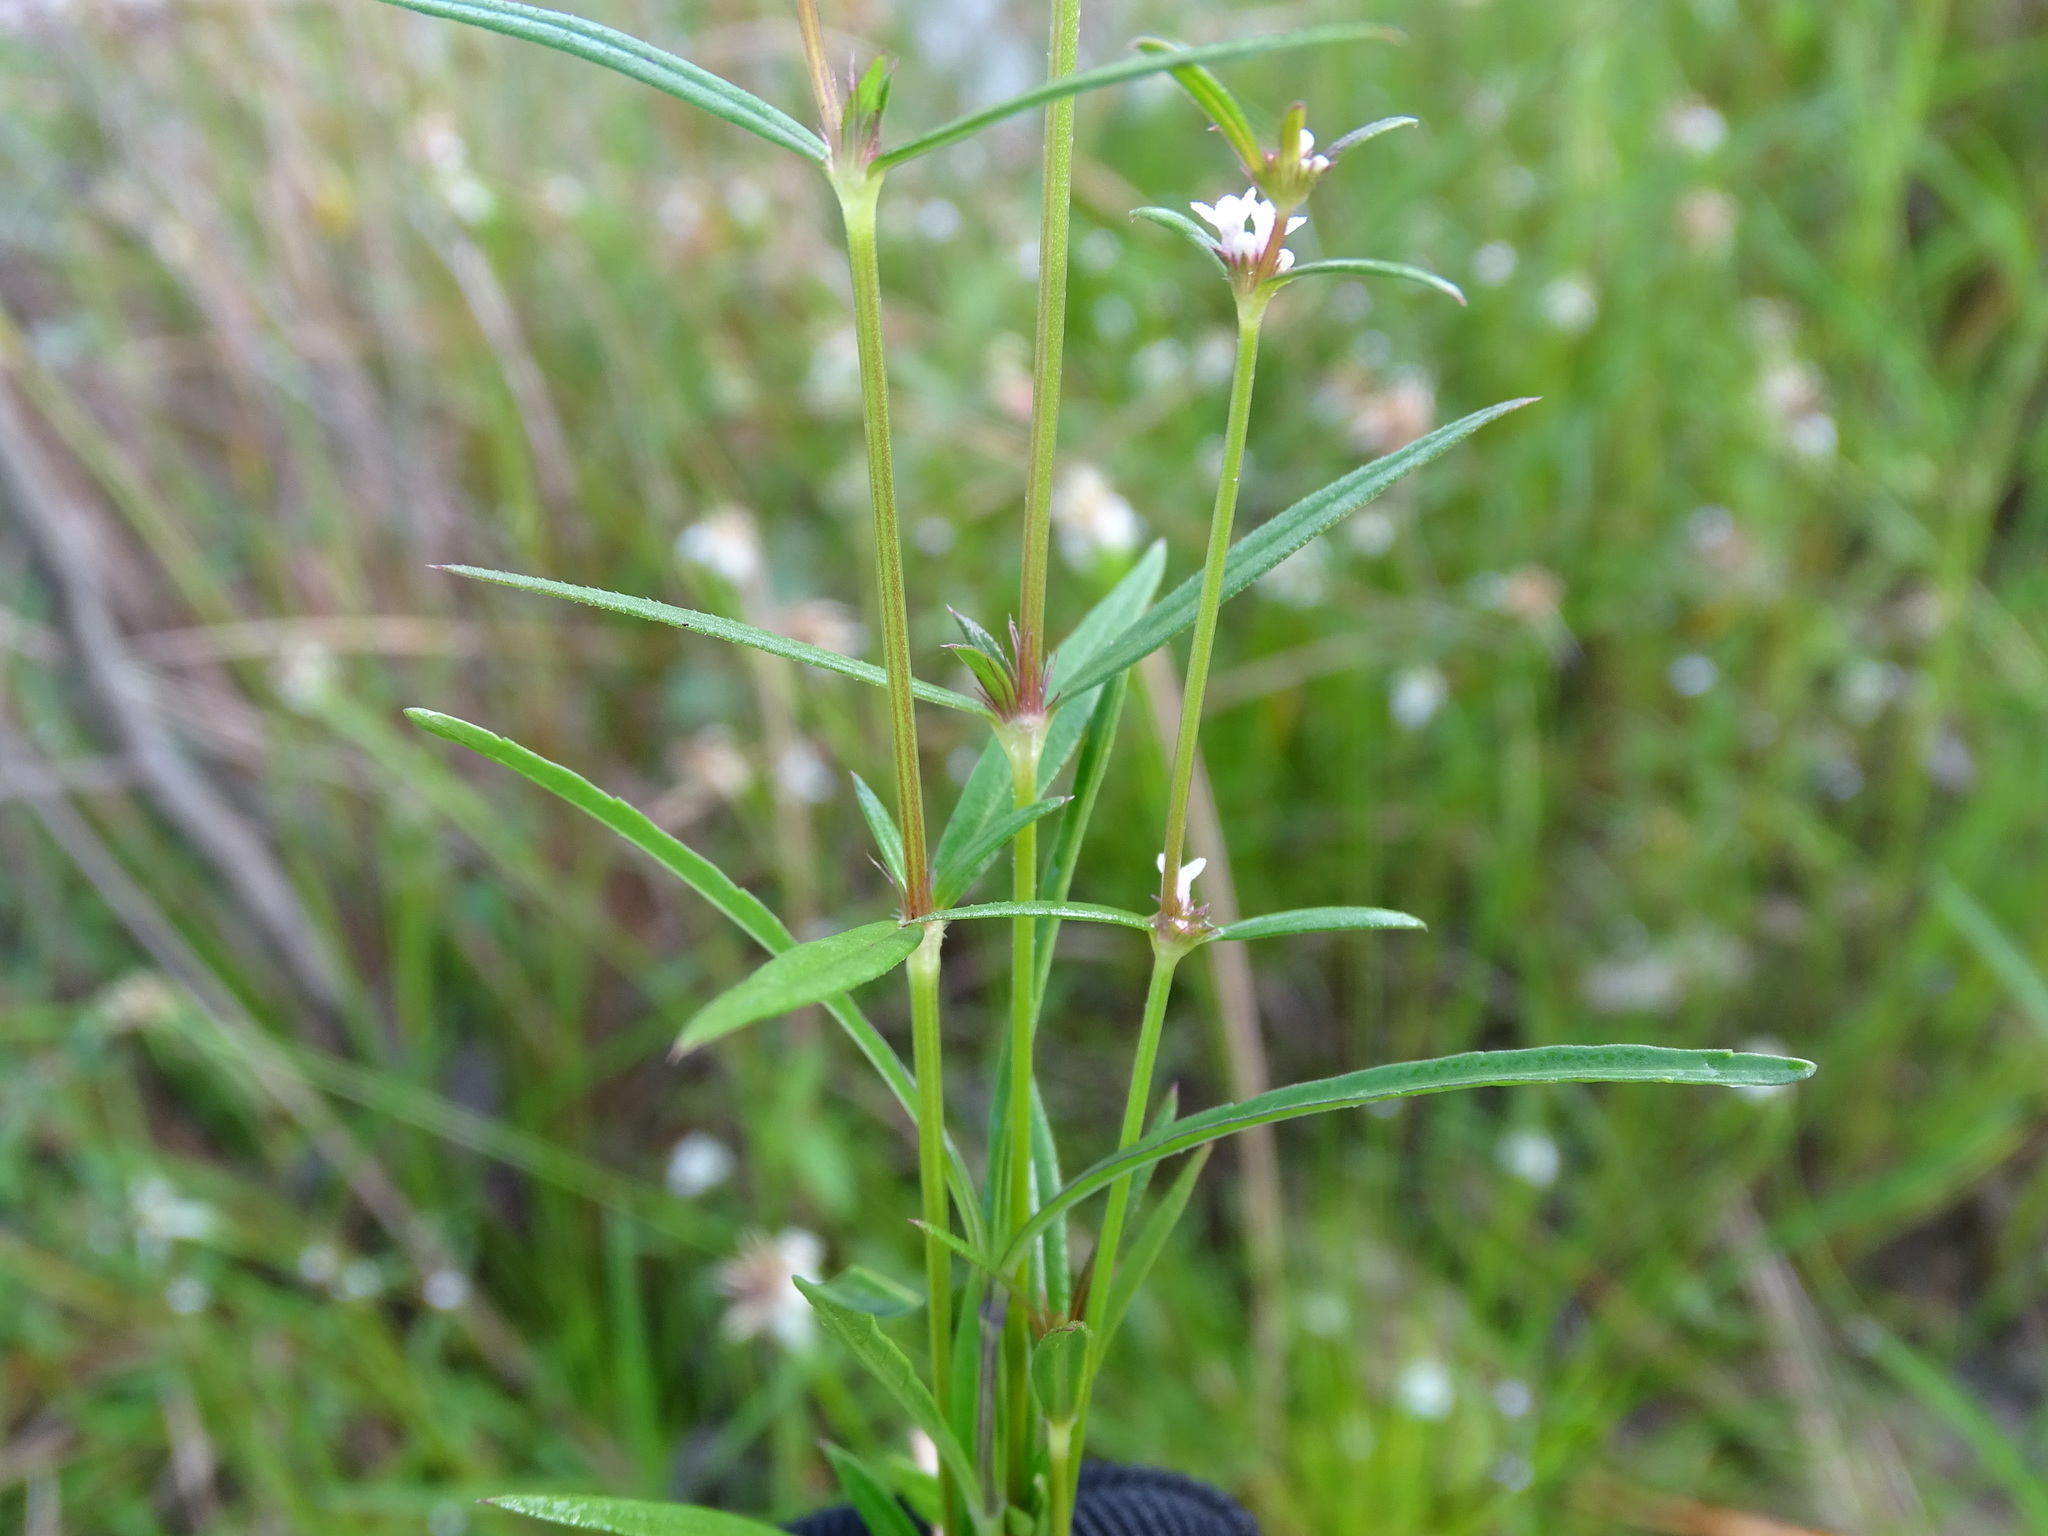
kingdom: Plantae
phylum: Tracheophyta
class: Magnoliopsida
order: Gentianales
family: Rubiaceae
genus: Spermacoce
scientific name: Spermacoce confusa
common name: Iron-grass
